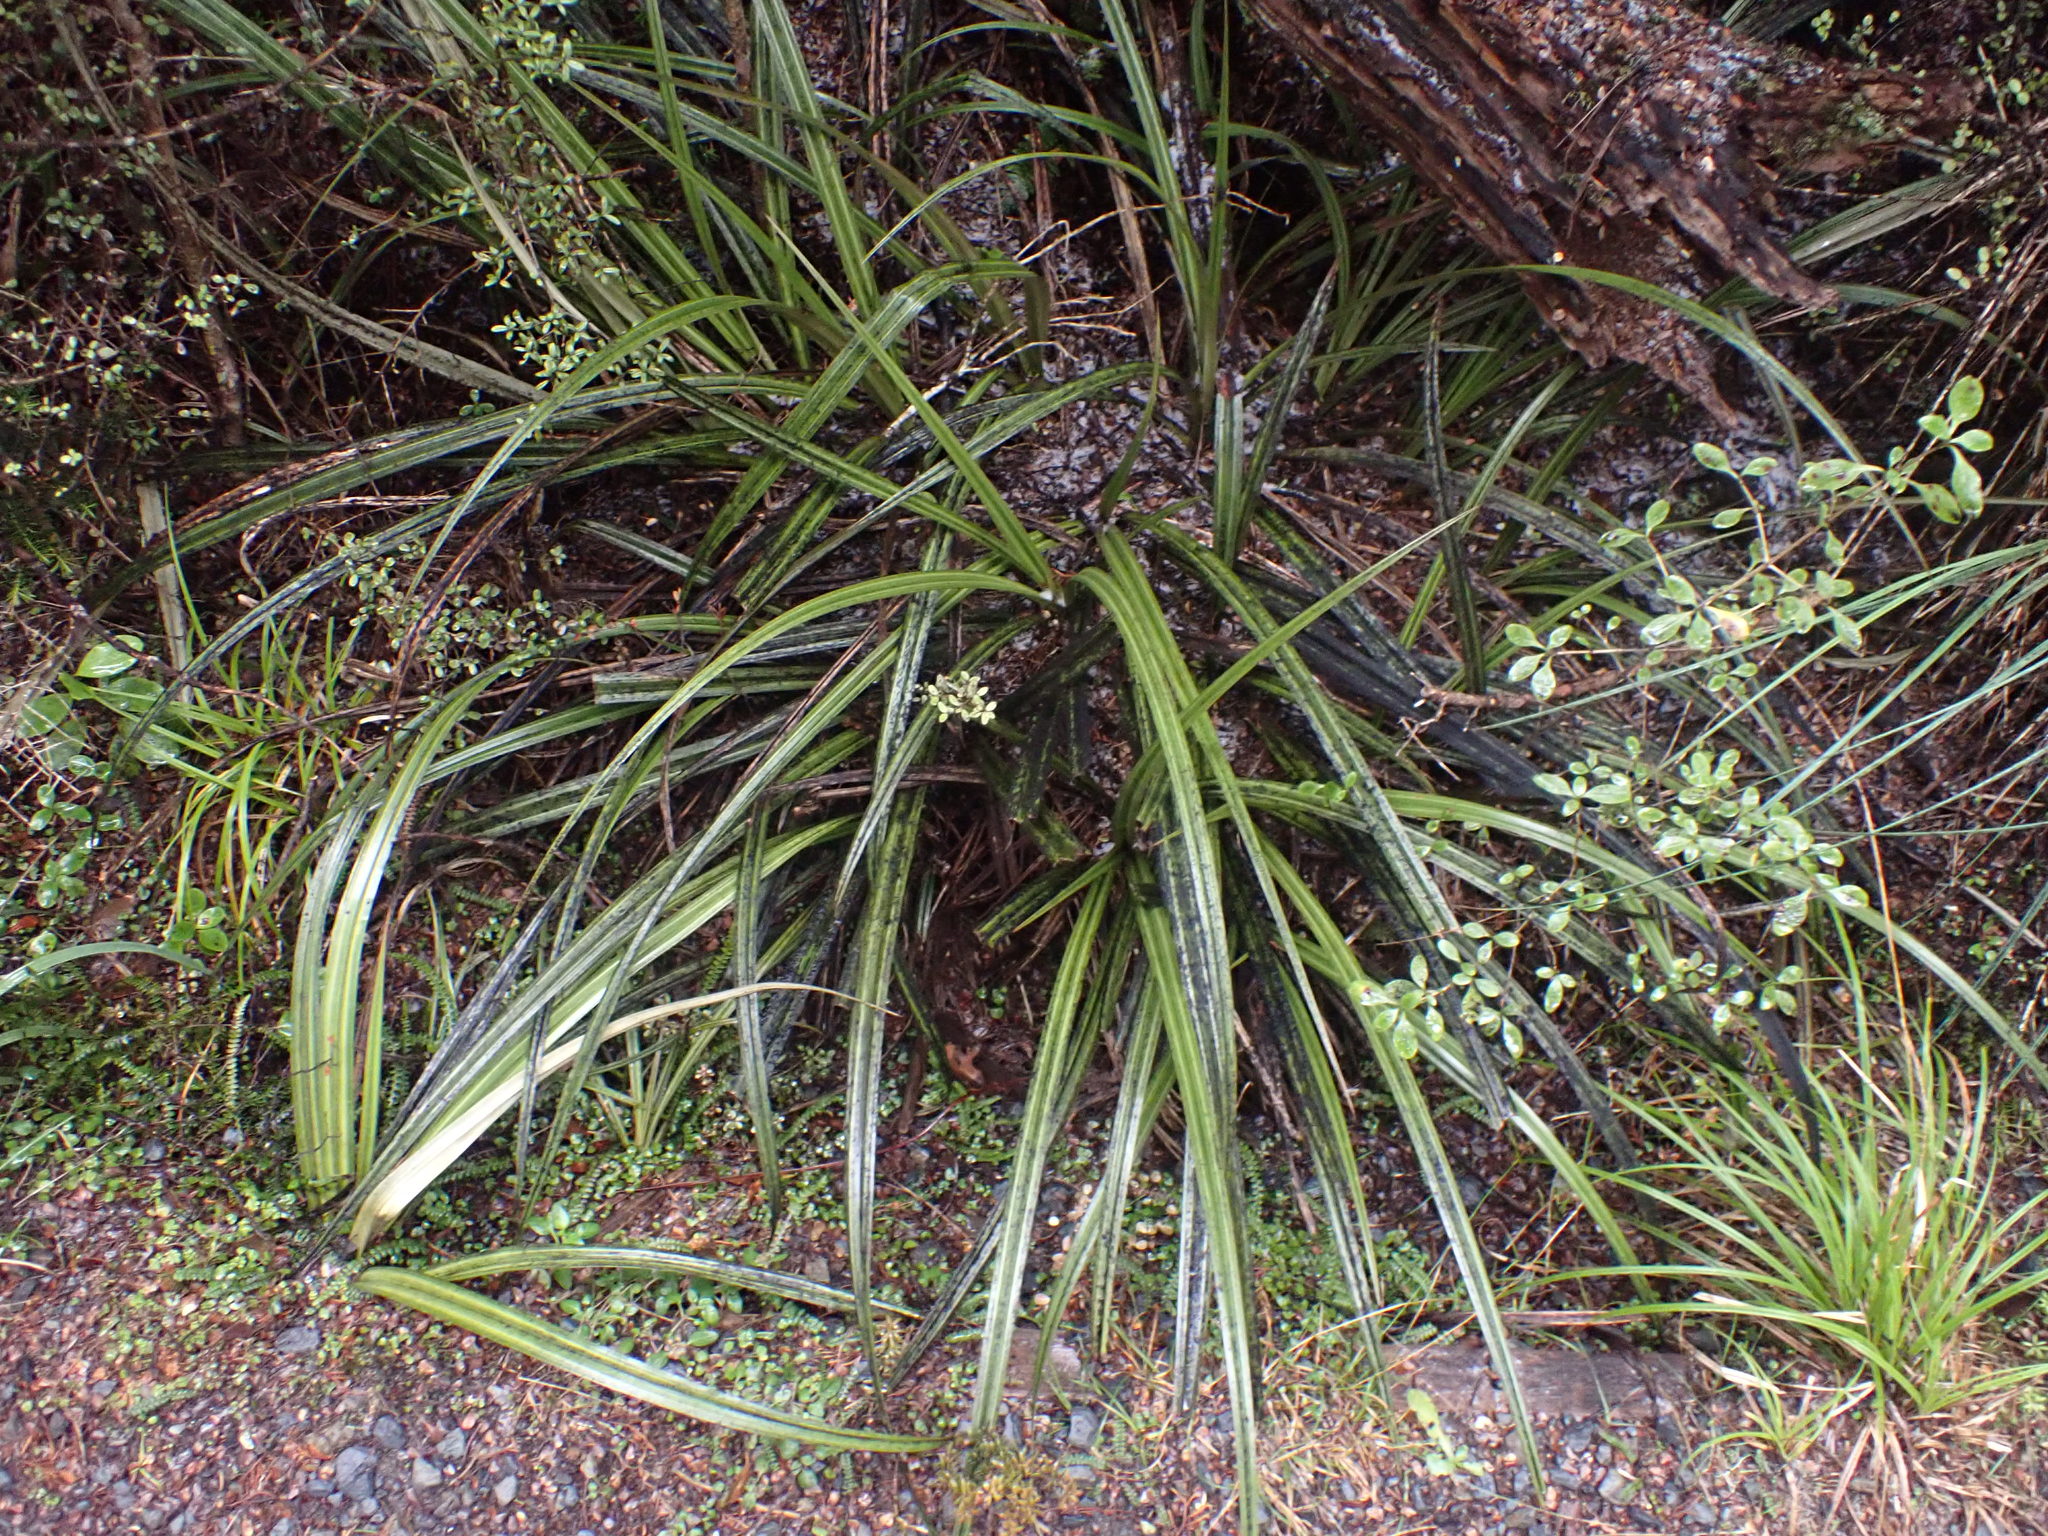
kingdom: Plantae
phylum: Tracheophyta
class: Liliopsida
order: Asparagales
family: Asteliaceae
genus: Astelia
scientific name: Astelia nervosa
